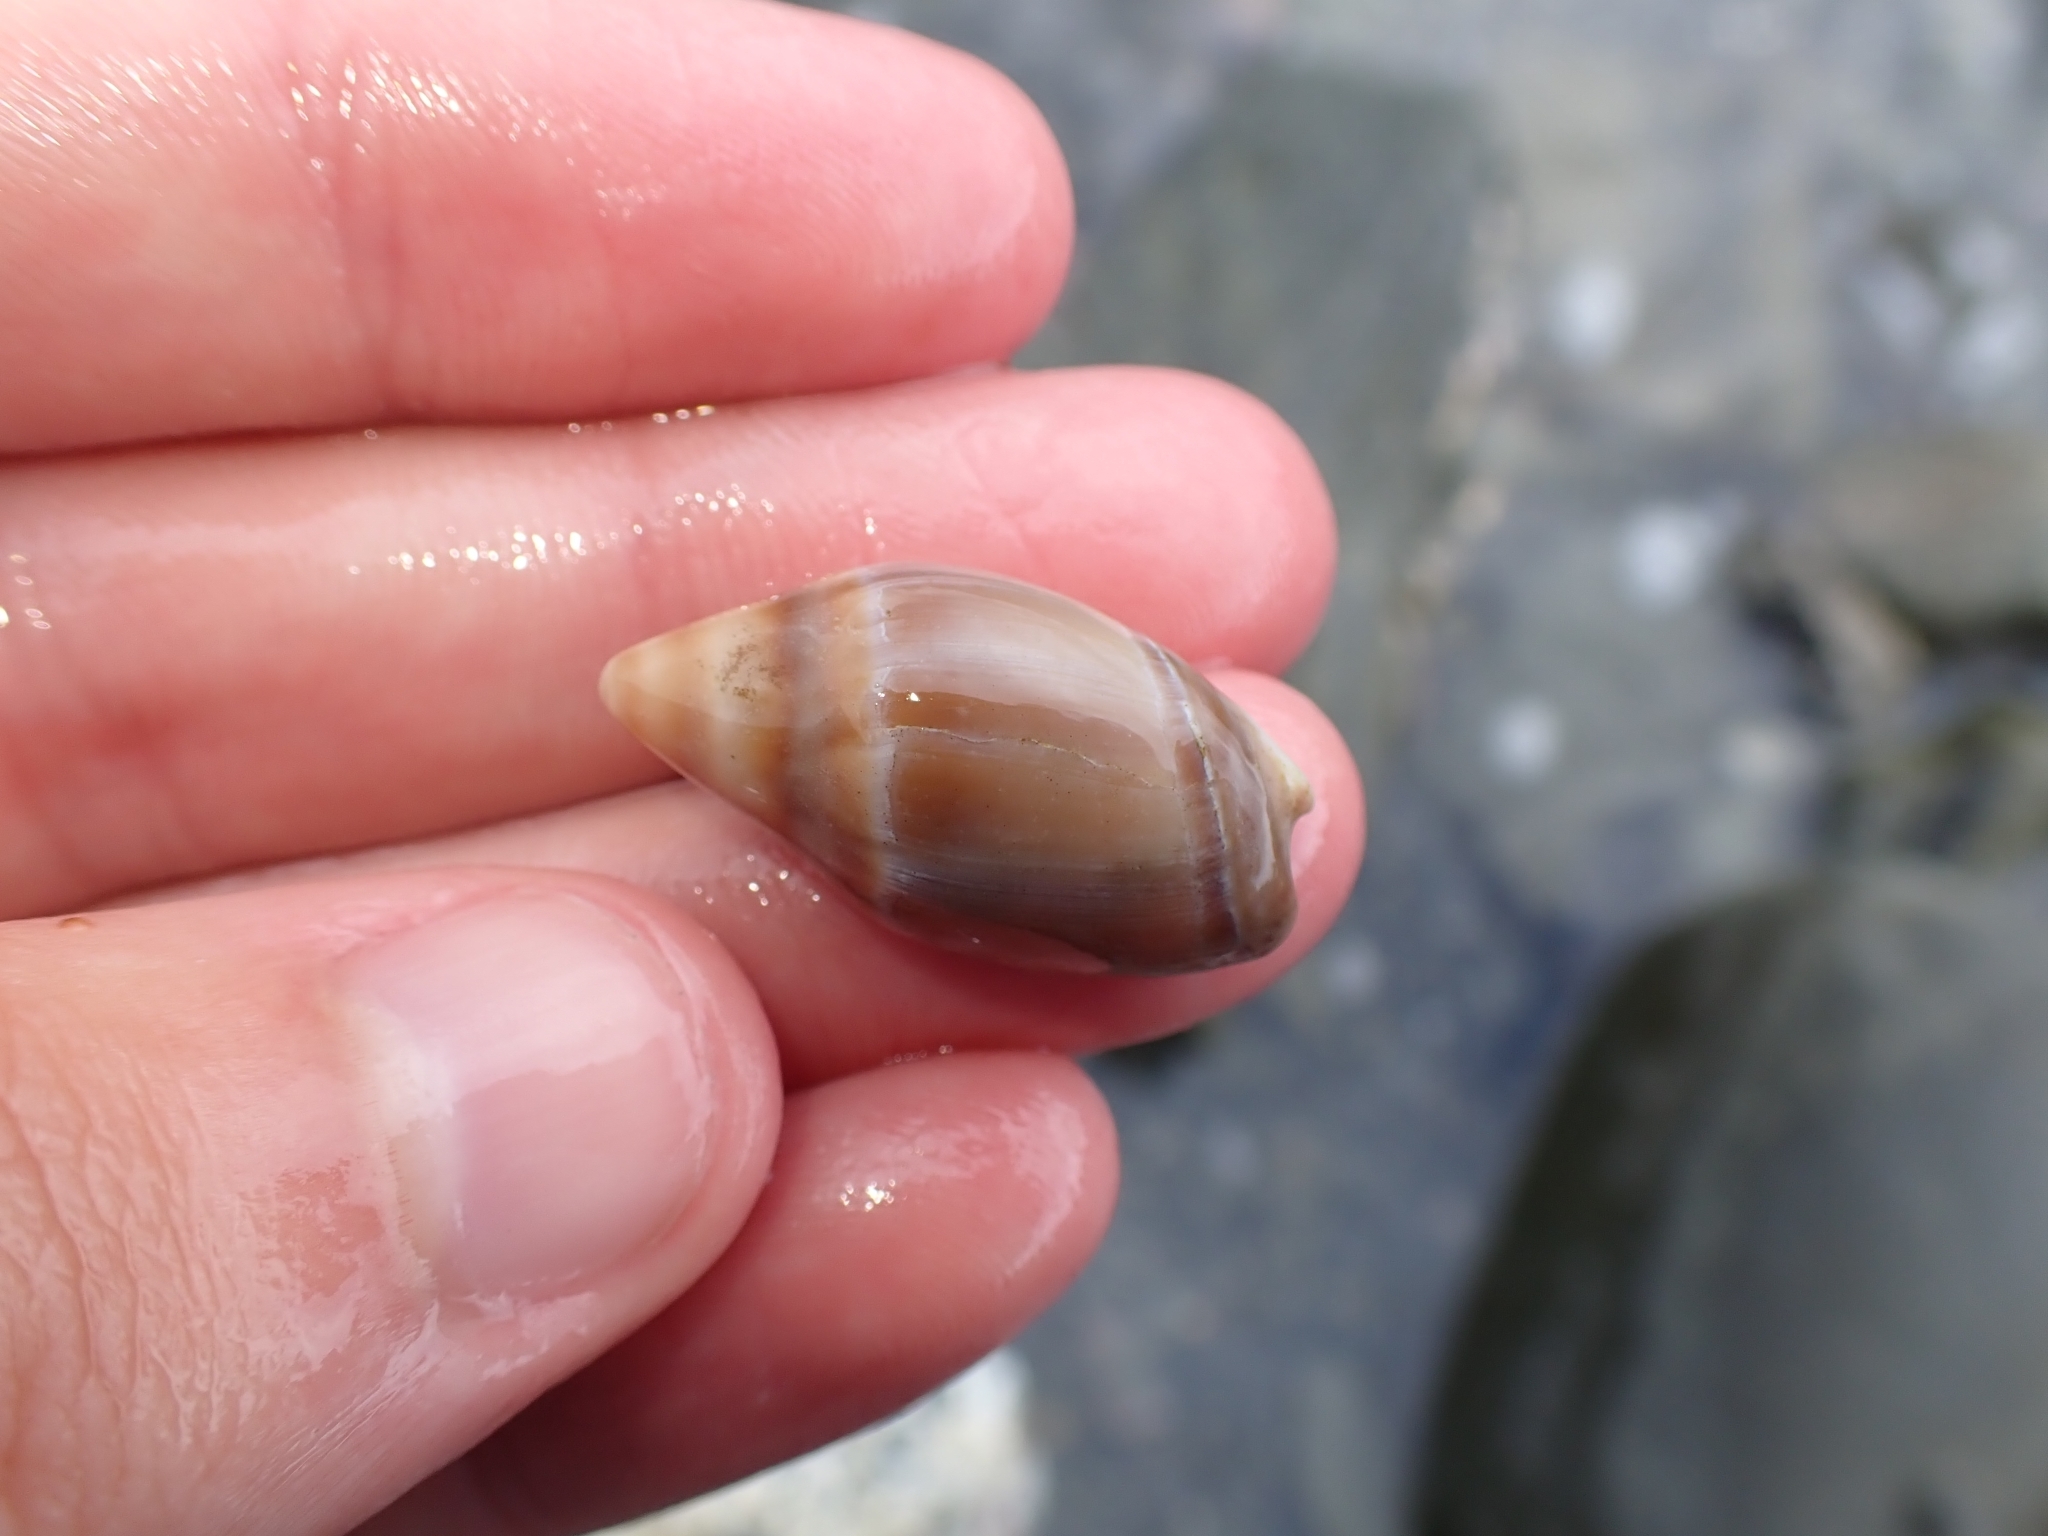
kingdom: Animalia
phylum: Mollusca
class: Gastropoda
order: Neogastropoda
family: Ancillariidae
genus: Amalda
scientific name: Amalda australis
